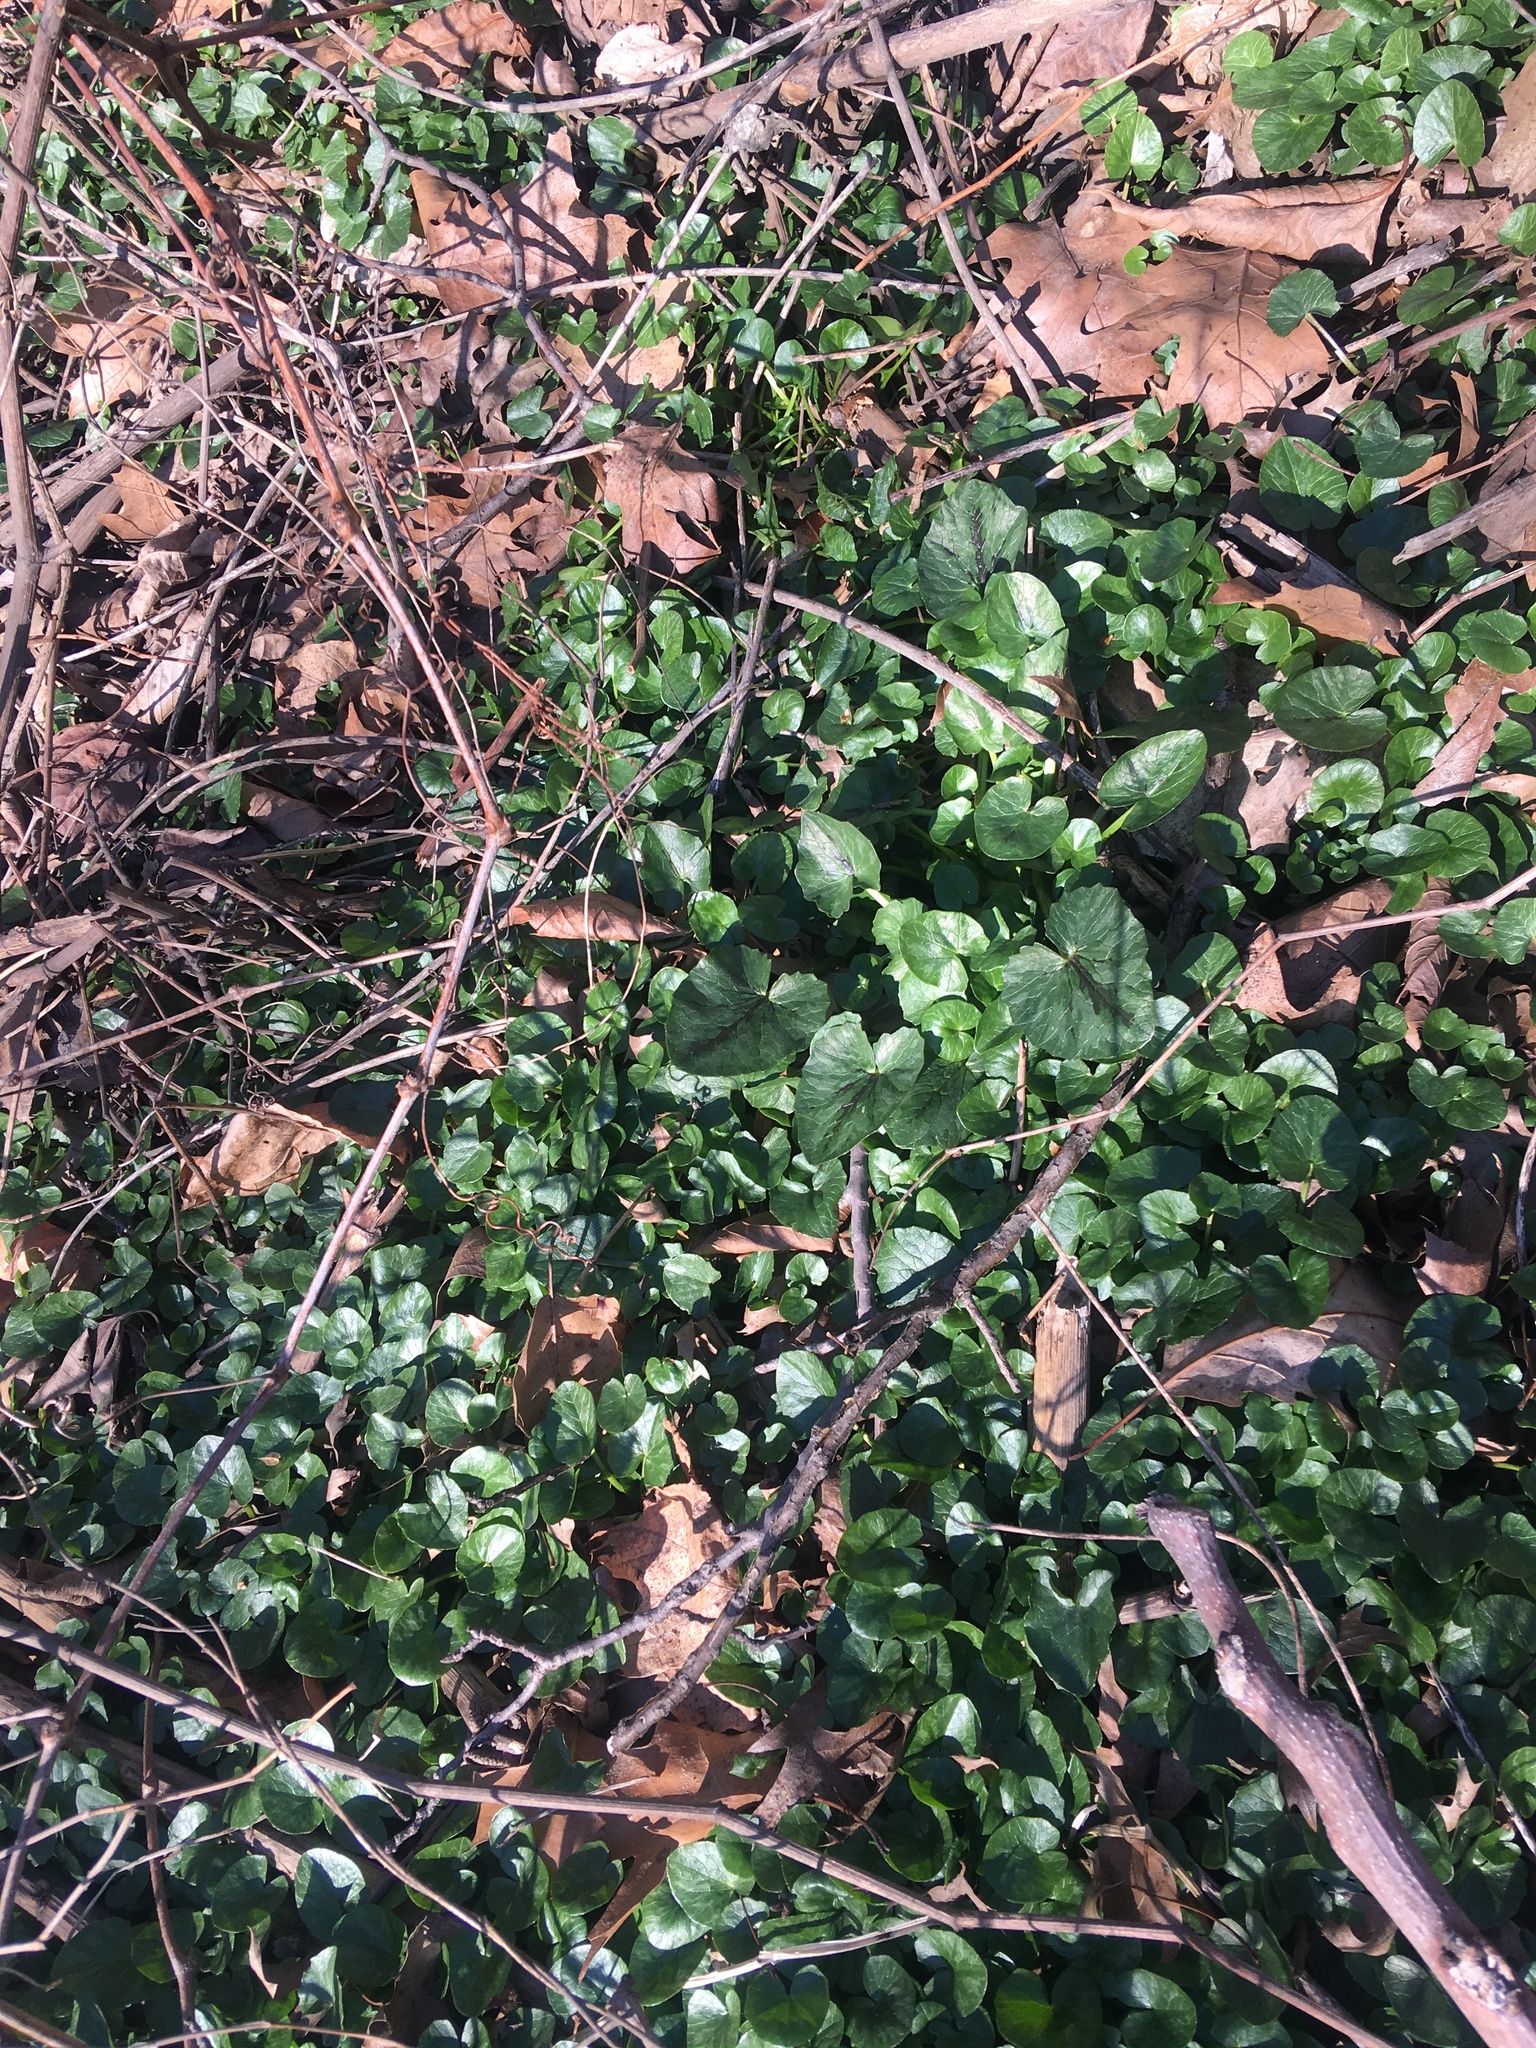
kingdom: Plantae
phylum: Tracheophyta
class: Magnoliopsida
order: Ranunculales
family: Ranunculaceae
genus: Ficaria
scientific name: Ficaria verna
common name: Lesser celandine
